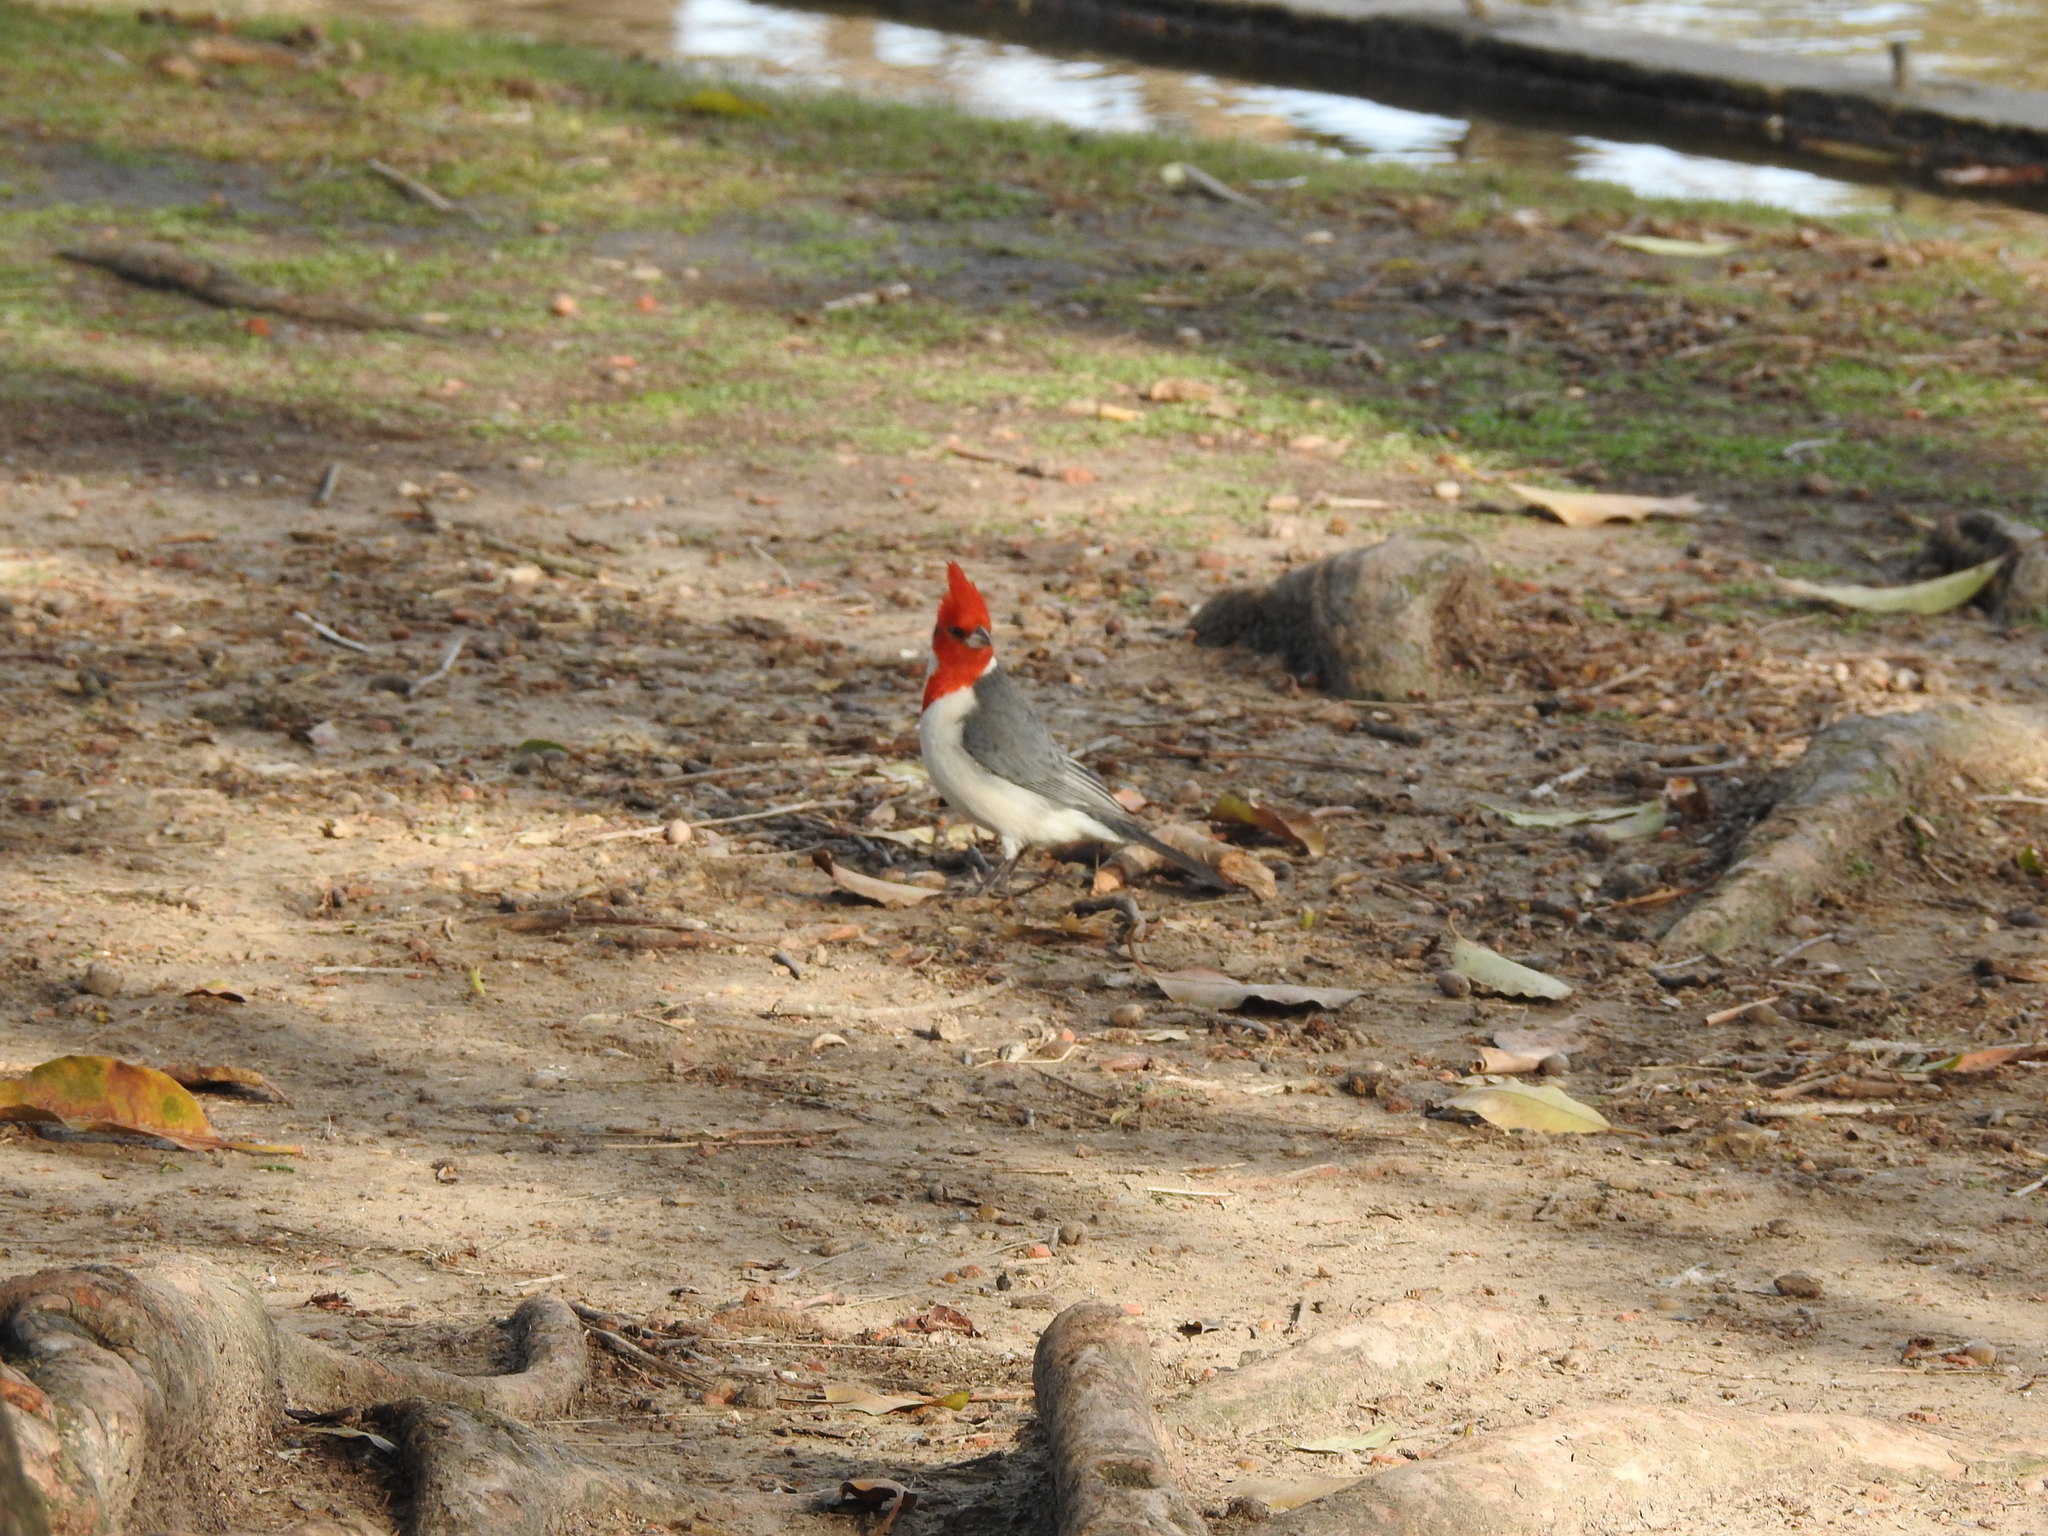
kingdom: Animalia
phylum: Chordata
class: Aves
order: Passeriformes
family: Thraupidae
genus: Paroaria
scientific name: Paroaria coronata
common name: Red-crested cardinal
